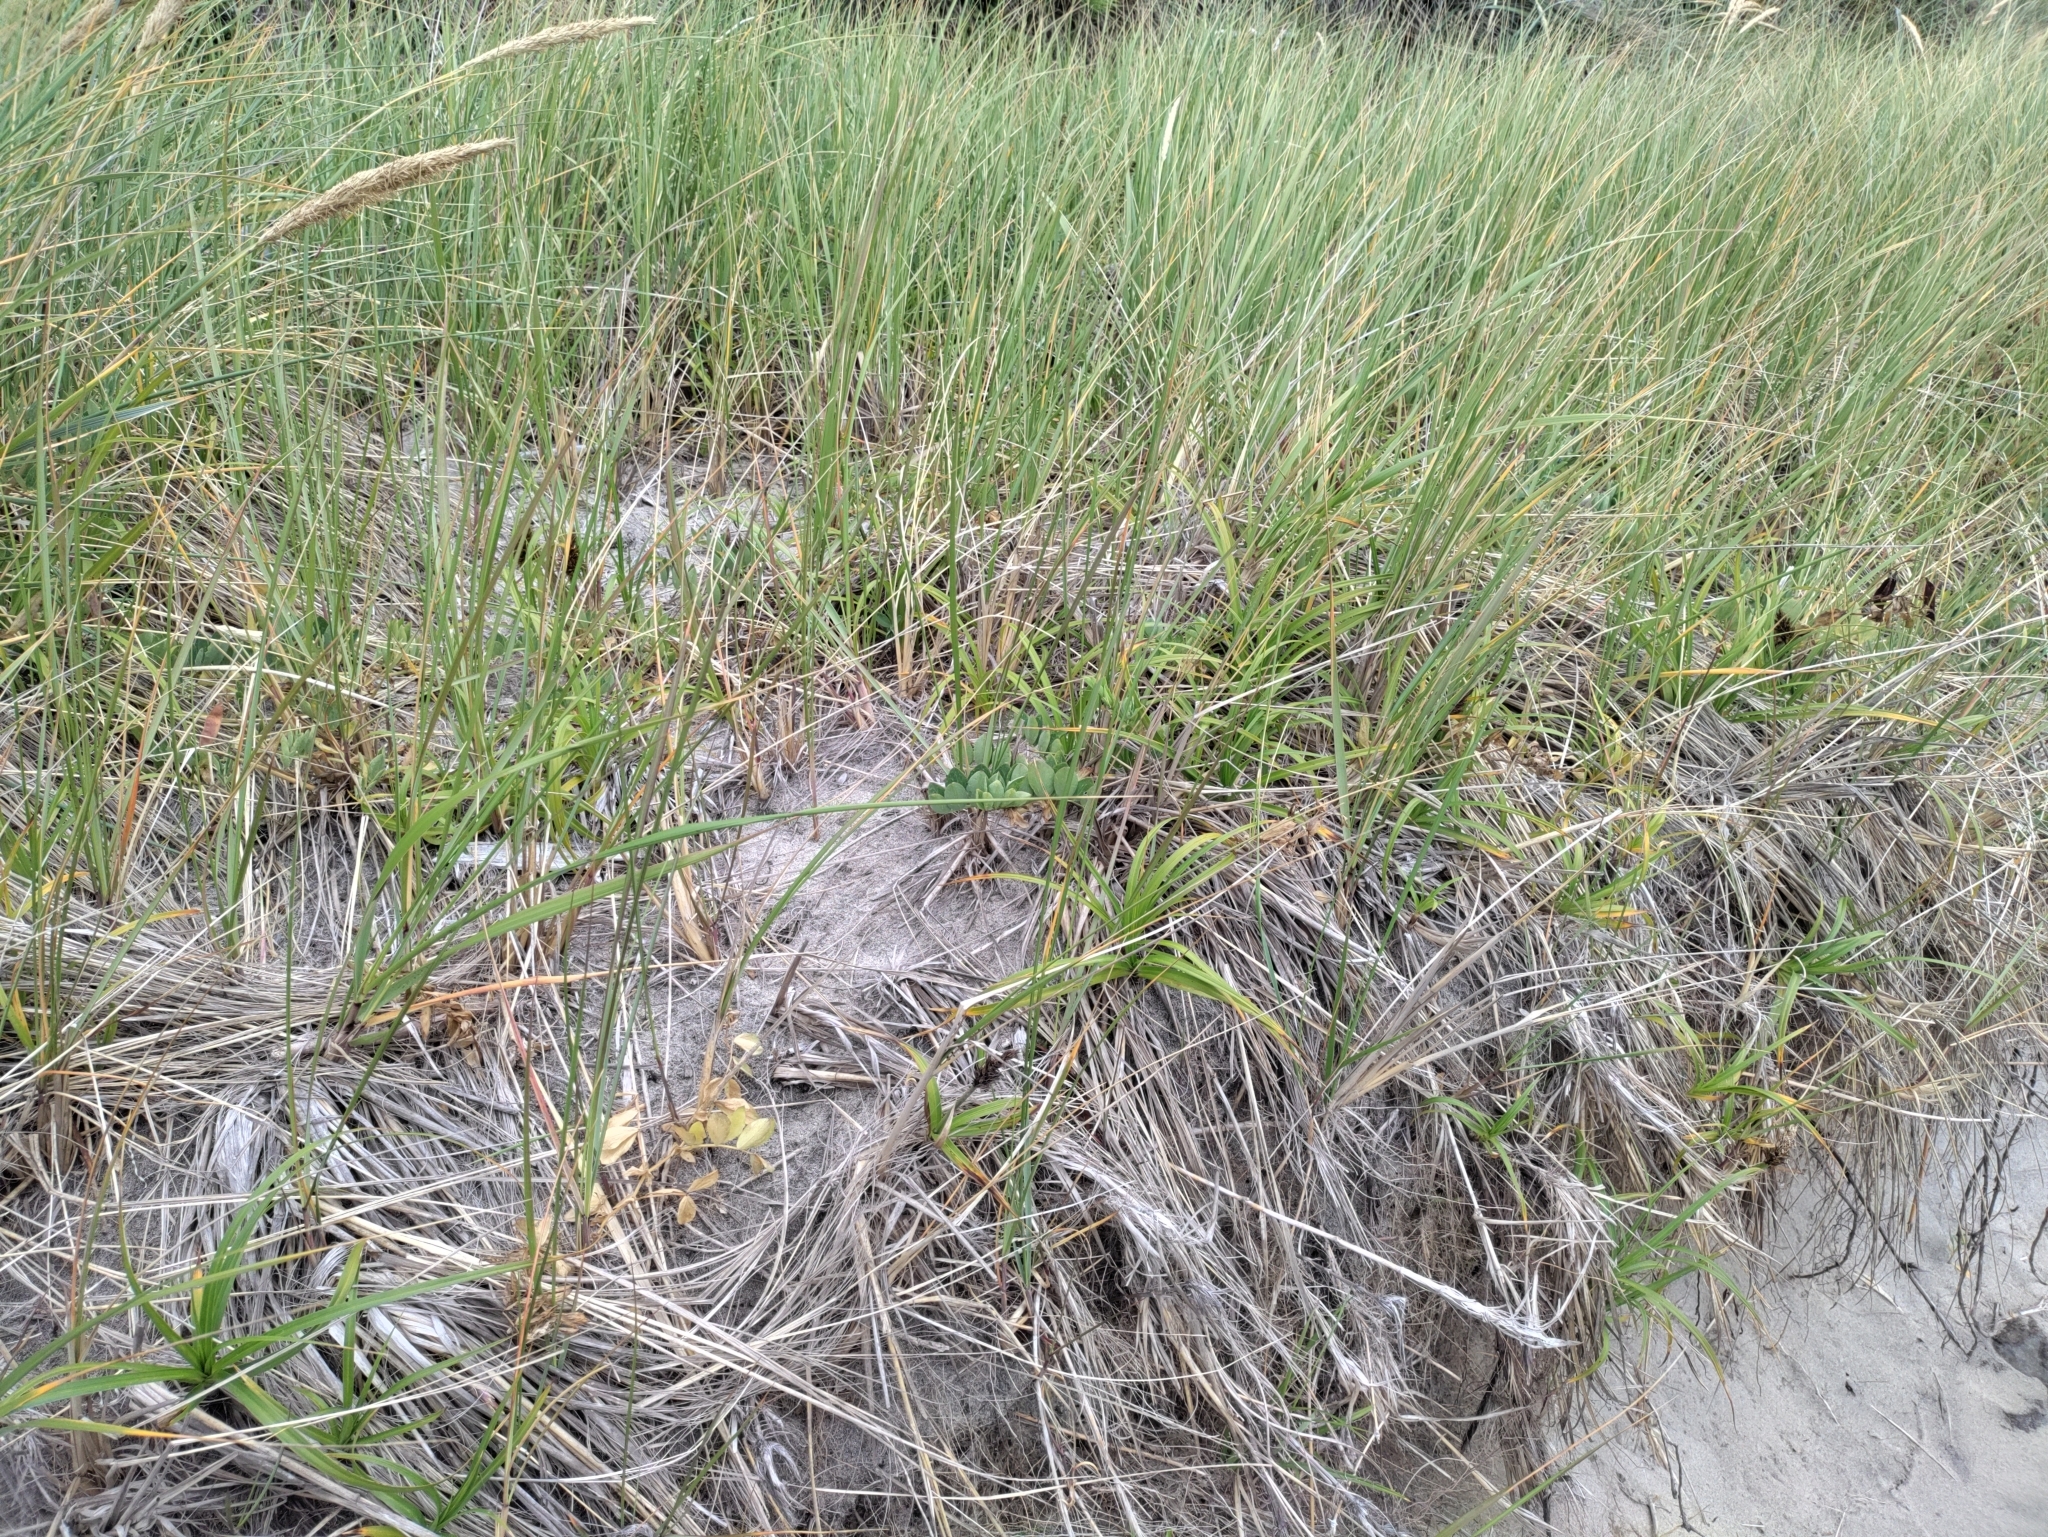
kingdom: Plantae
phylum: Tracheophyta
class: Liliopsida
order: Poales
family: Cyperaceae
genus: Carex
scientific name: Carex macrocephala
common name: Large-head sedge
